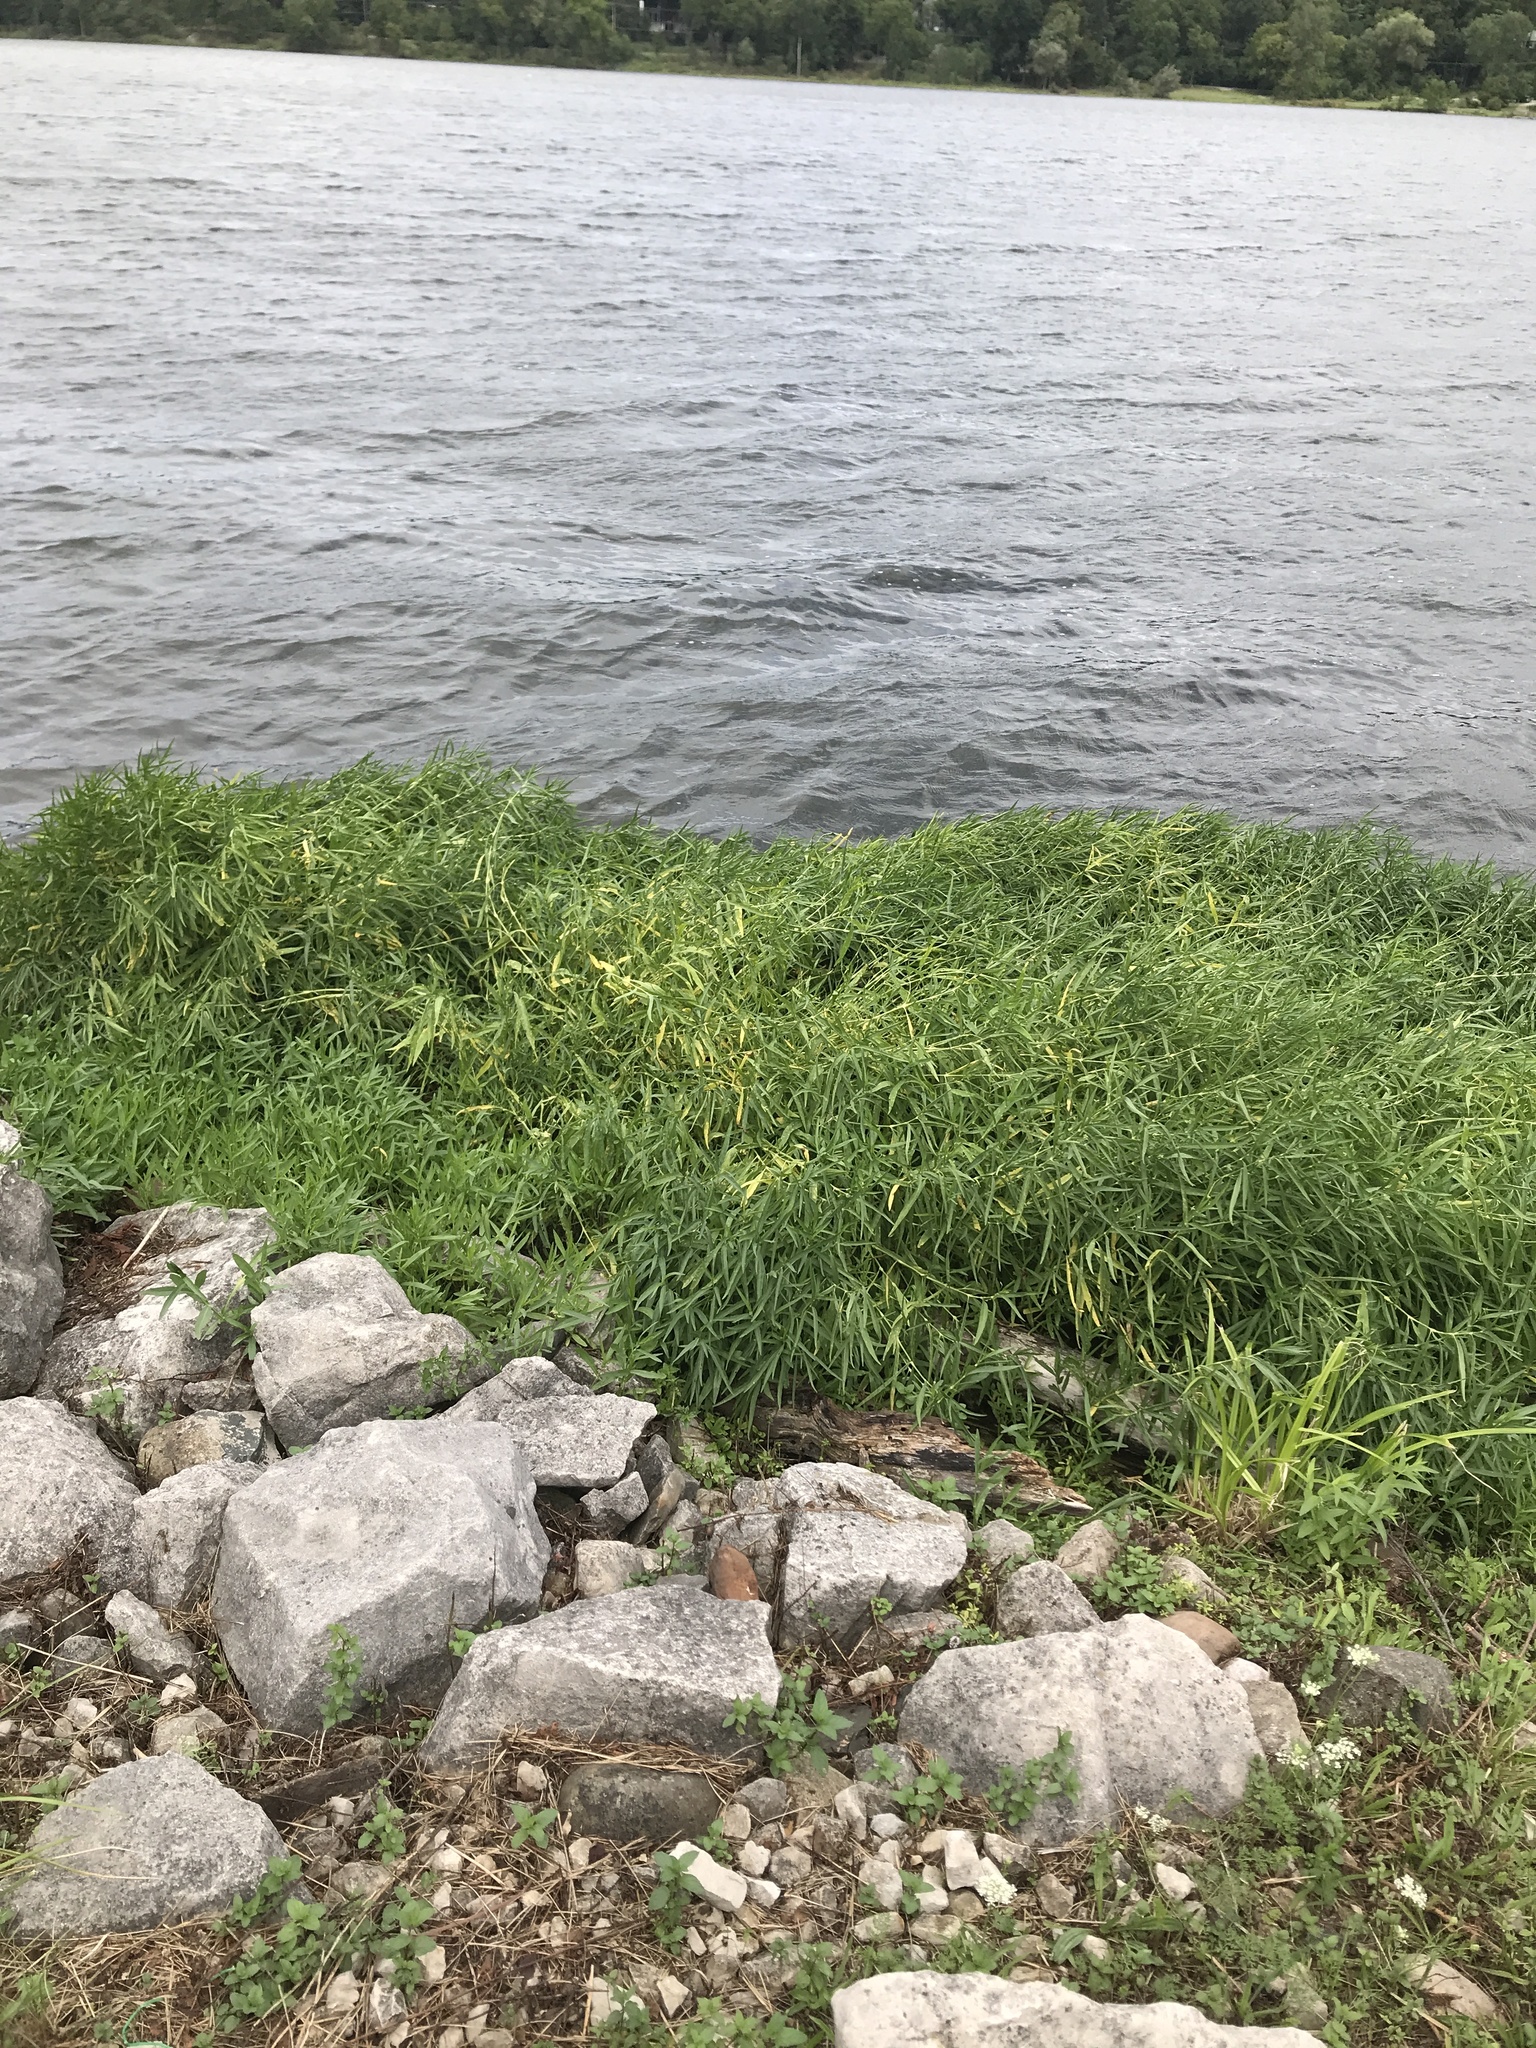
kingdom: Plantae
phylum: Tracheophyta
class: Magnoliopsida
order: Lamiales
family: Acanthaceae
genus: Dianthera
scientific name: Dianthera americana
